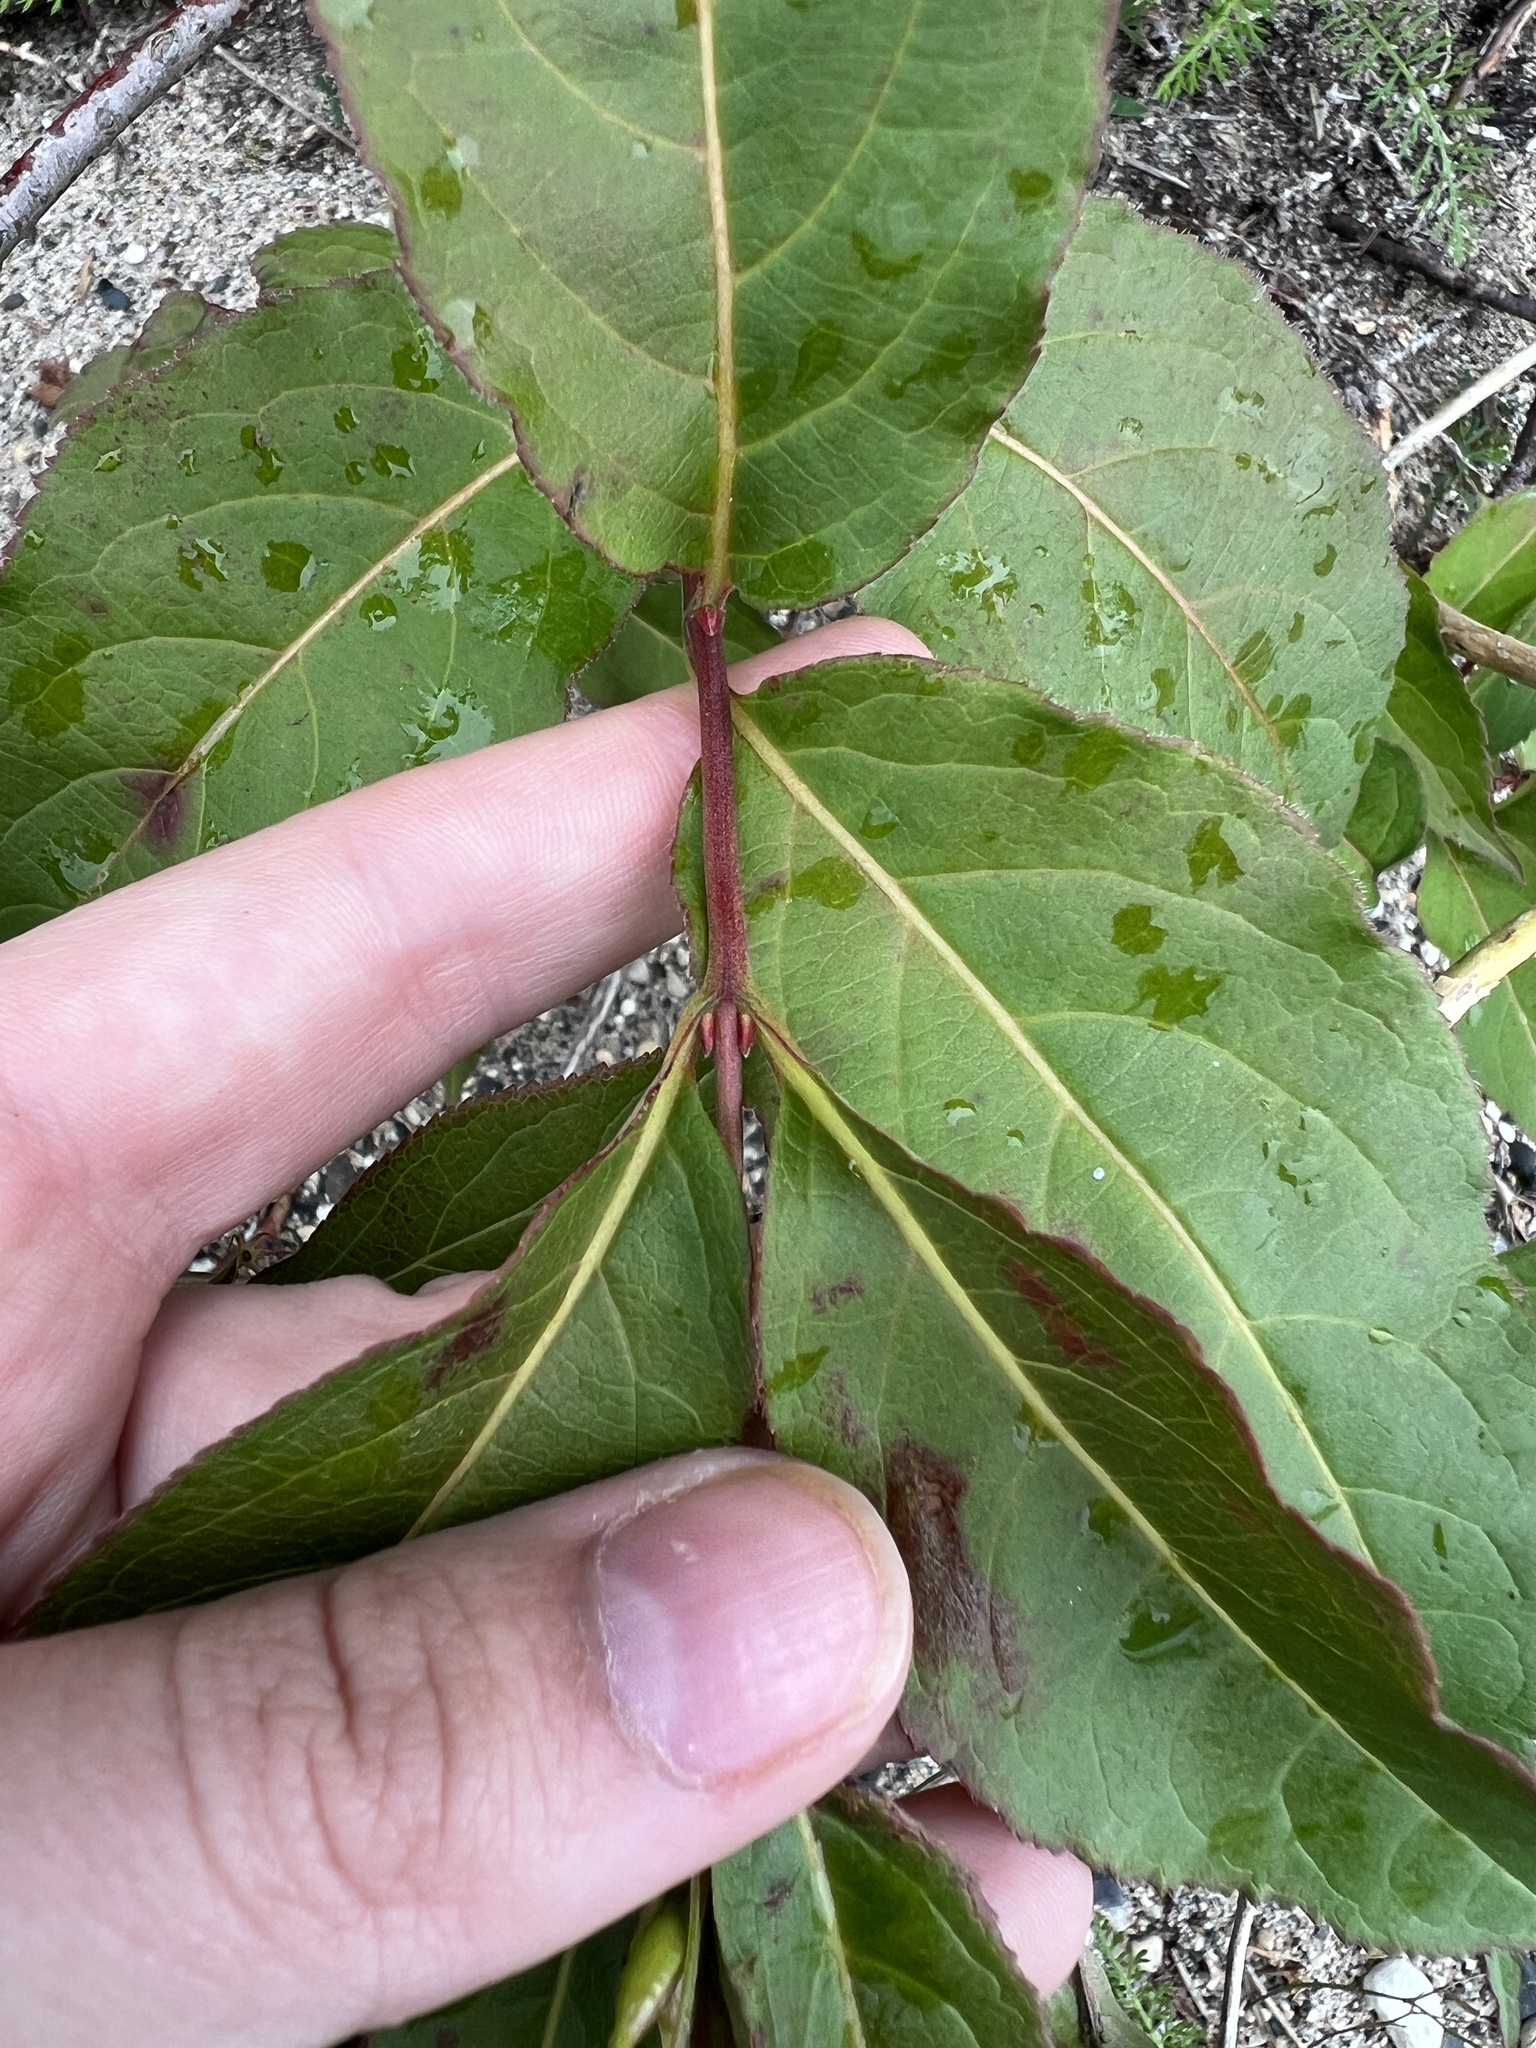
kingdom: Plantae
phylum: Tracheophyta
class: Magnoliopsida
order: Dipsacales
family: Caprifoliaceae
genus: Diervilla
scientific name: Diervilla lonicera
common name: Bush-honeysuckle
